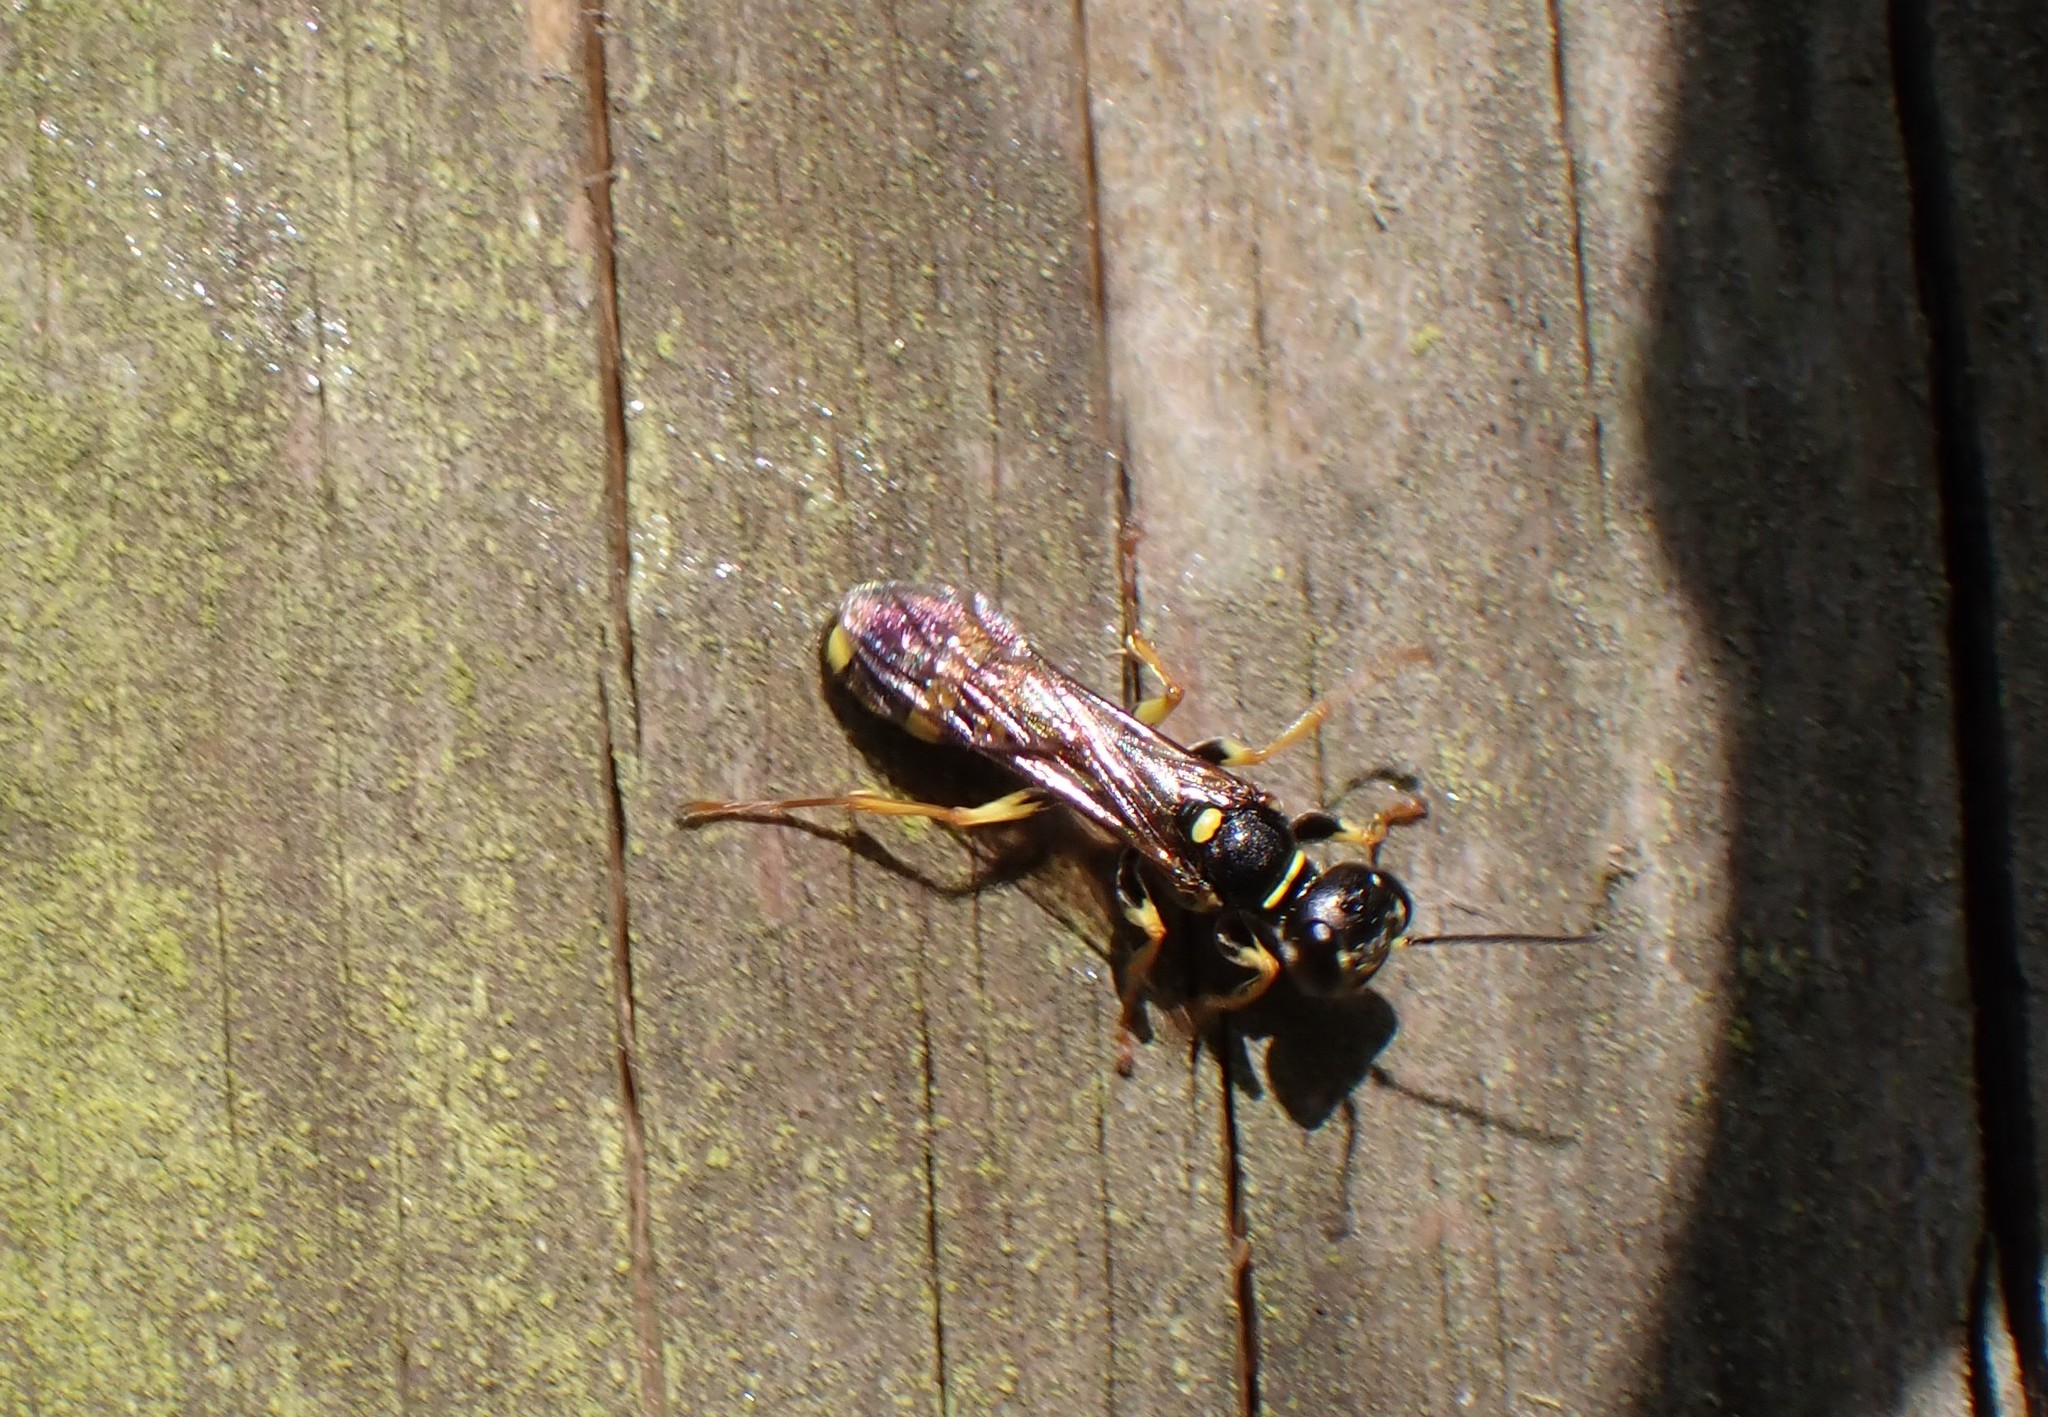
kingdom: Animalia
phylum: Arthropoda
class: Insecta
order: Hymenoptera
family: Crabronidae
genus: Mellinus
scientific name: Mellinus arvensis
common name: Field digger wasp
